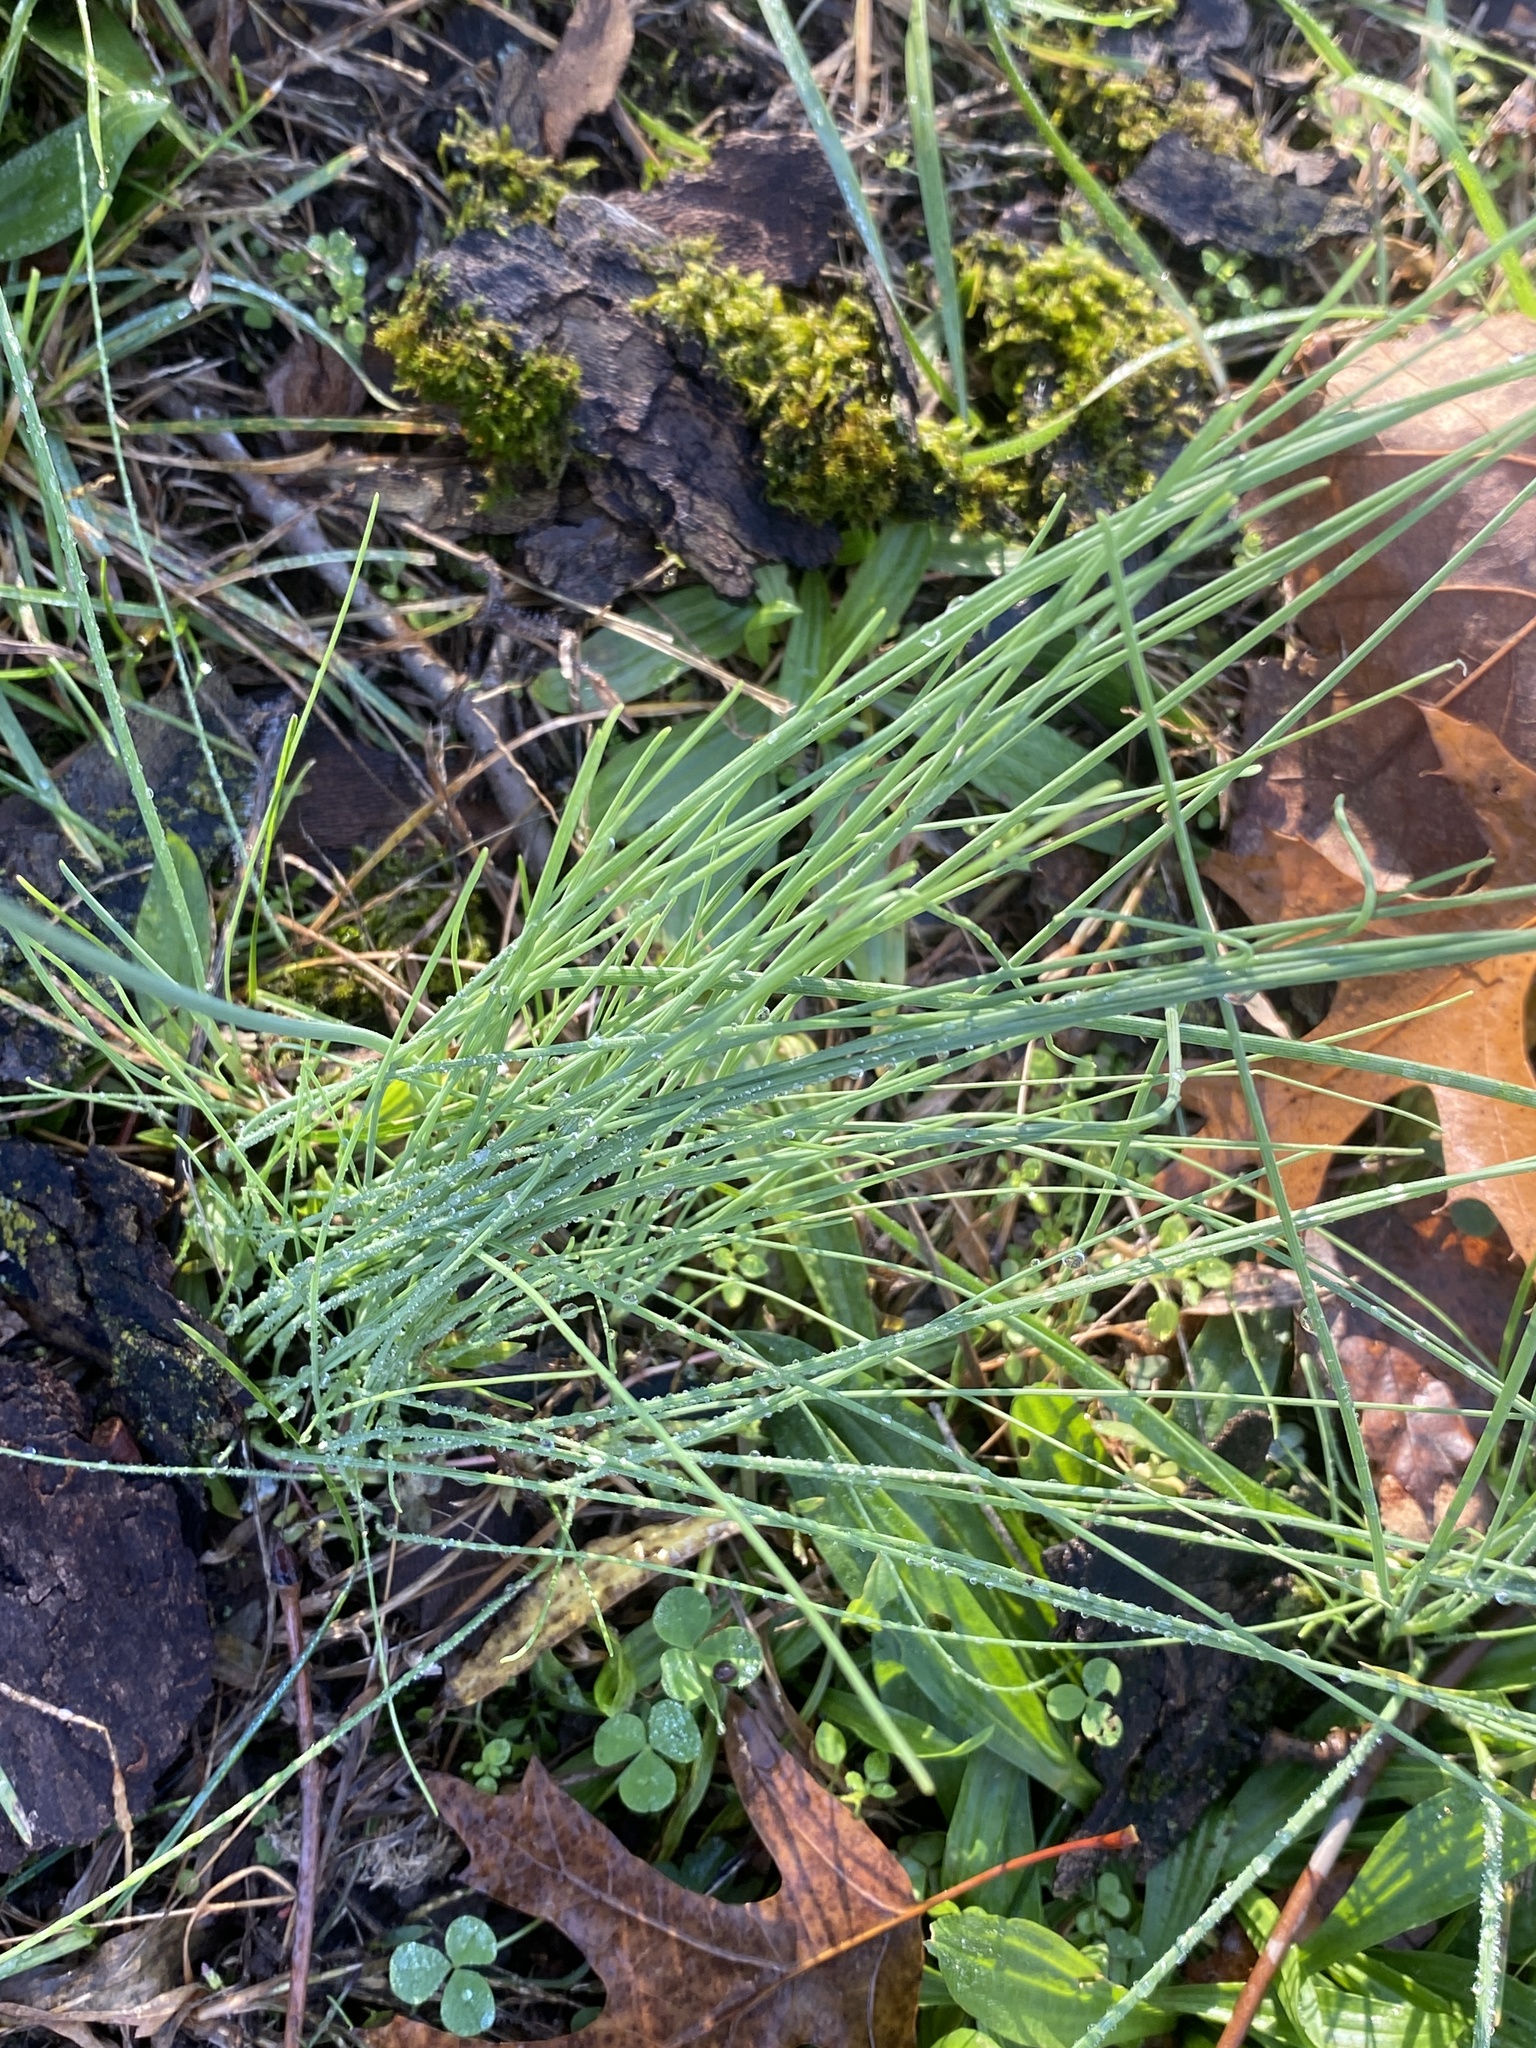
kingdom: Plantae
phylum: Tracheophyta
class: Liliopsida
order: Asparagales
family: Amaryllidaceae
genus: Allium
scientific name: Allium vineale
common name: Crow garlic
